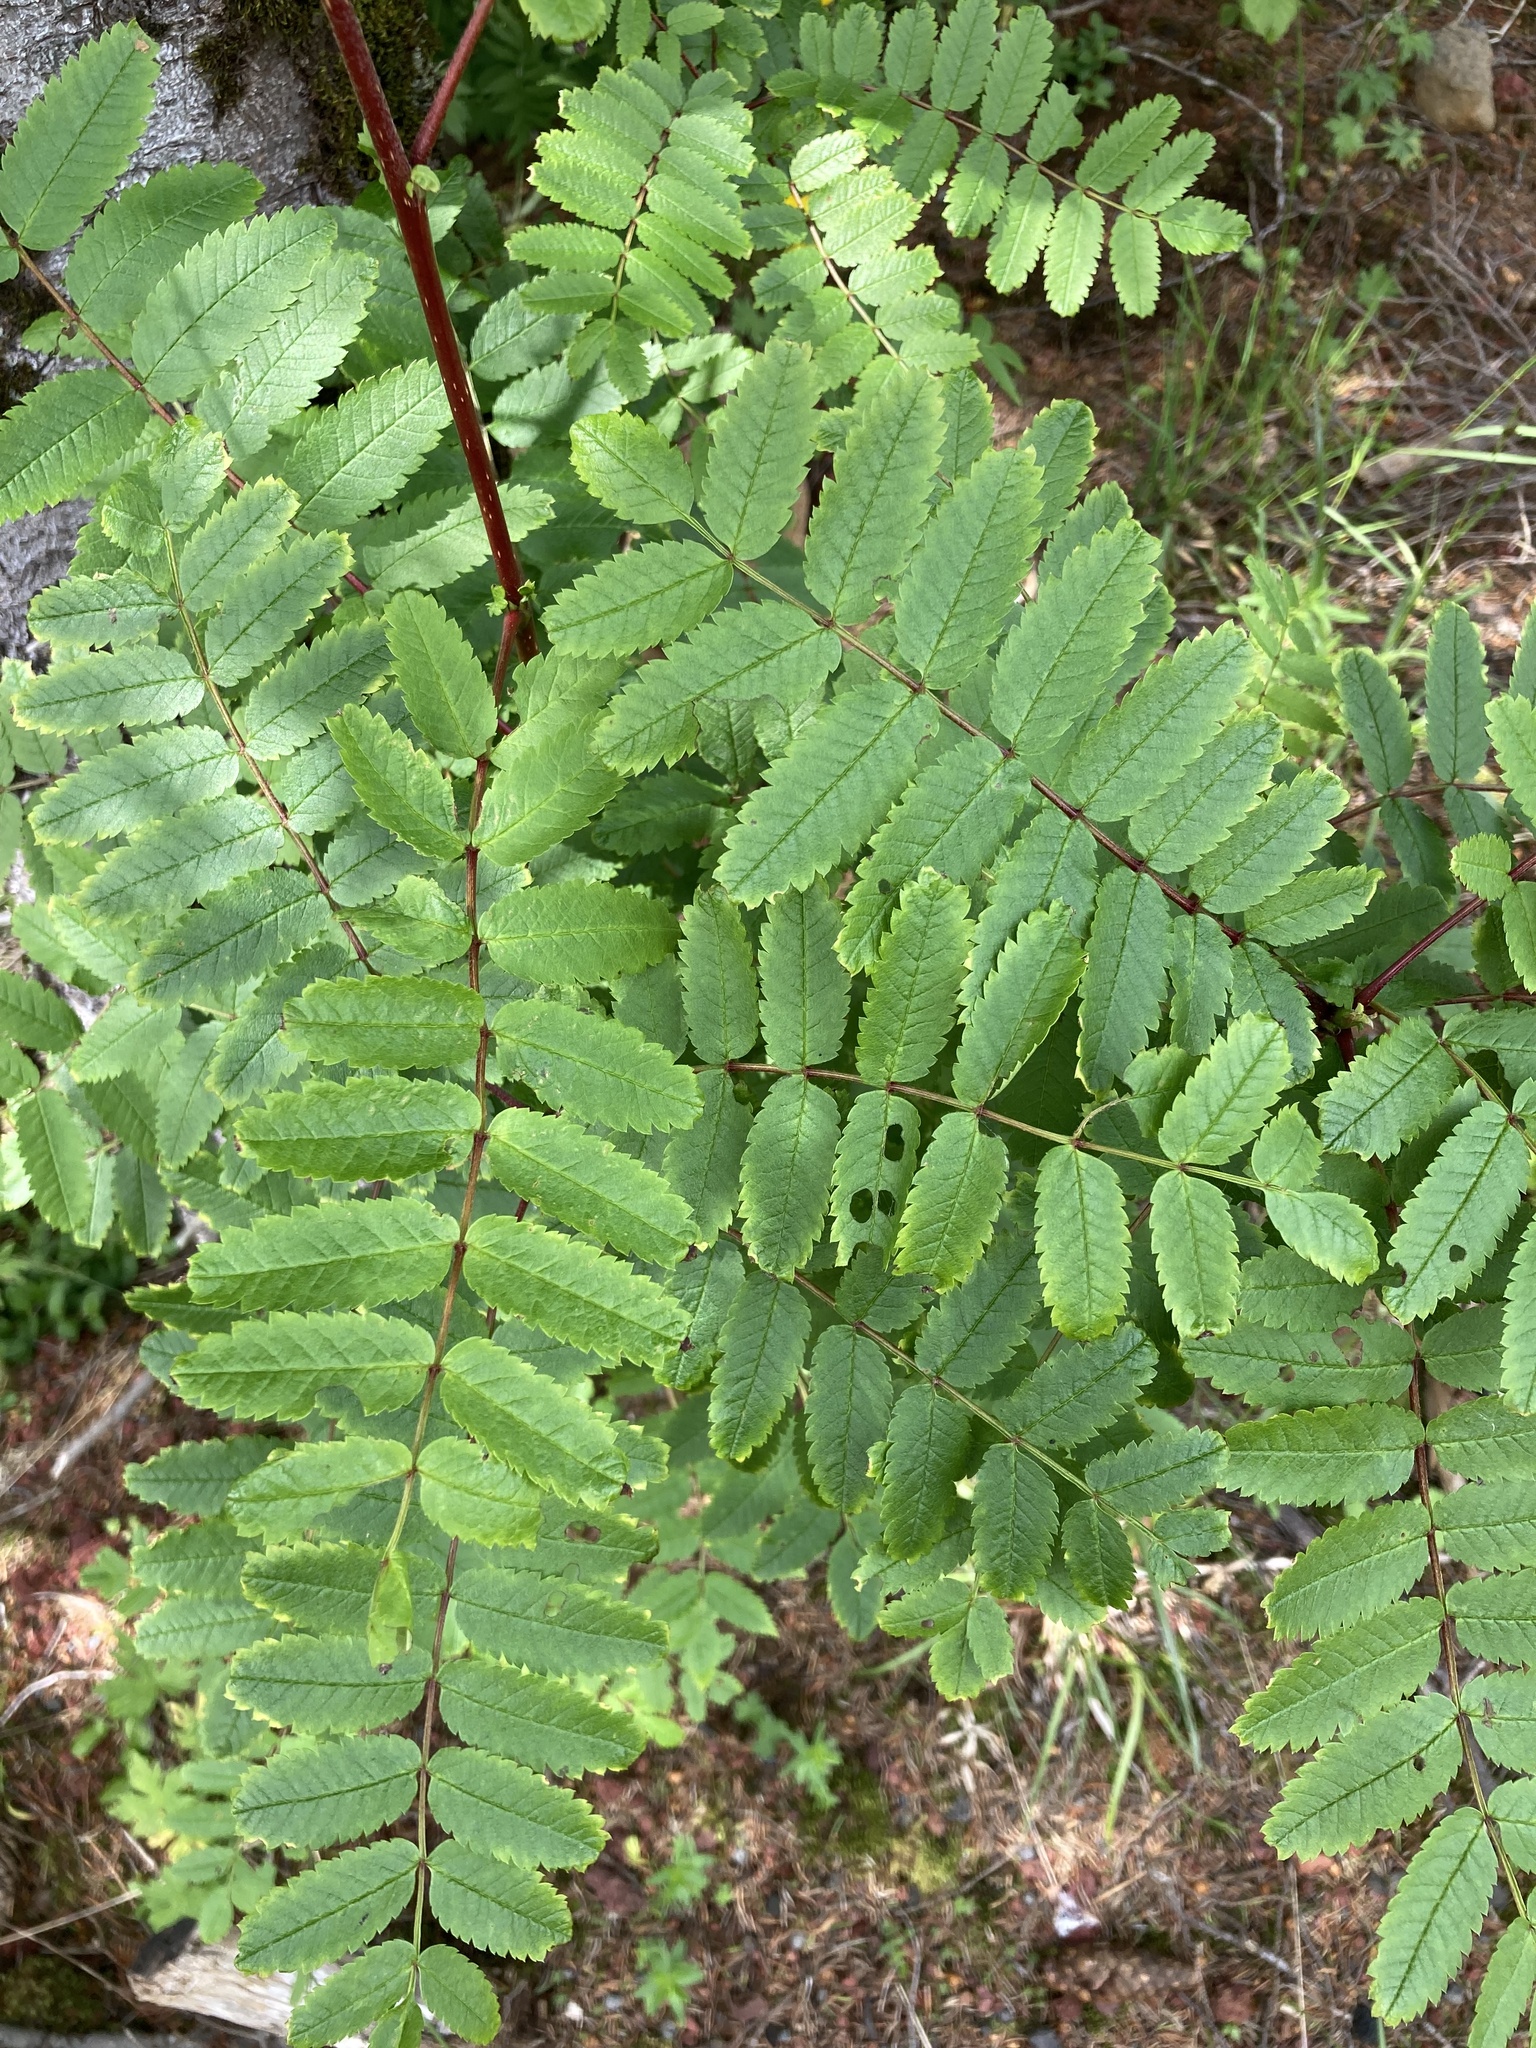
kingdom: Plantae
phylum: Tracheophyta
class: Magnoliopsida
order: Rosales
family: Rosaceae
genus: Sorbus
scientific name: Sorbus aucuparia
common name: Rowan
